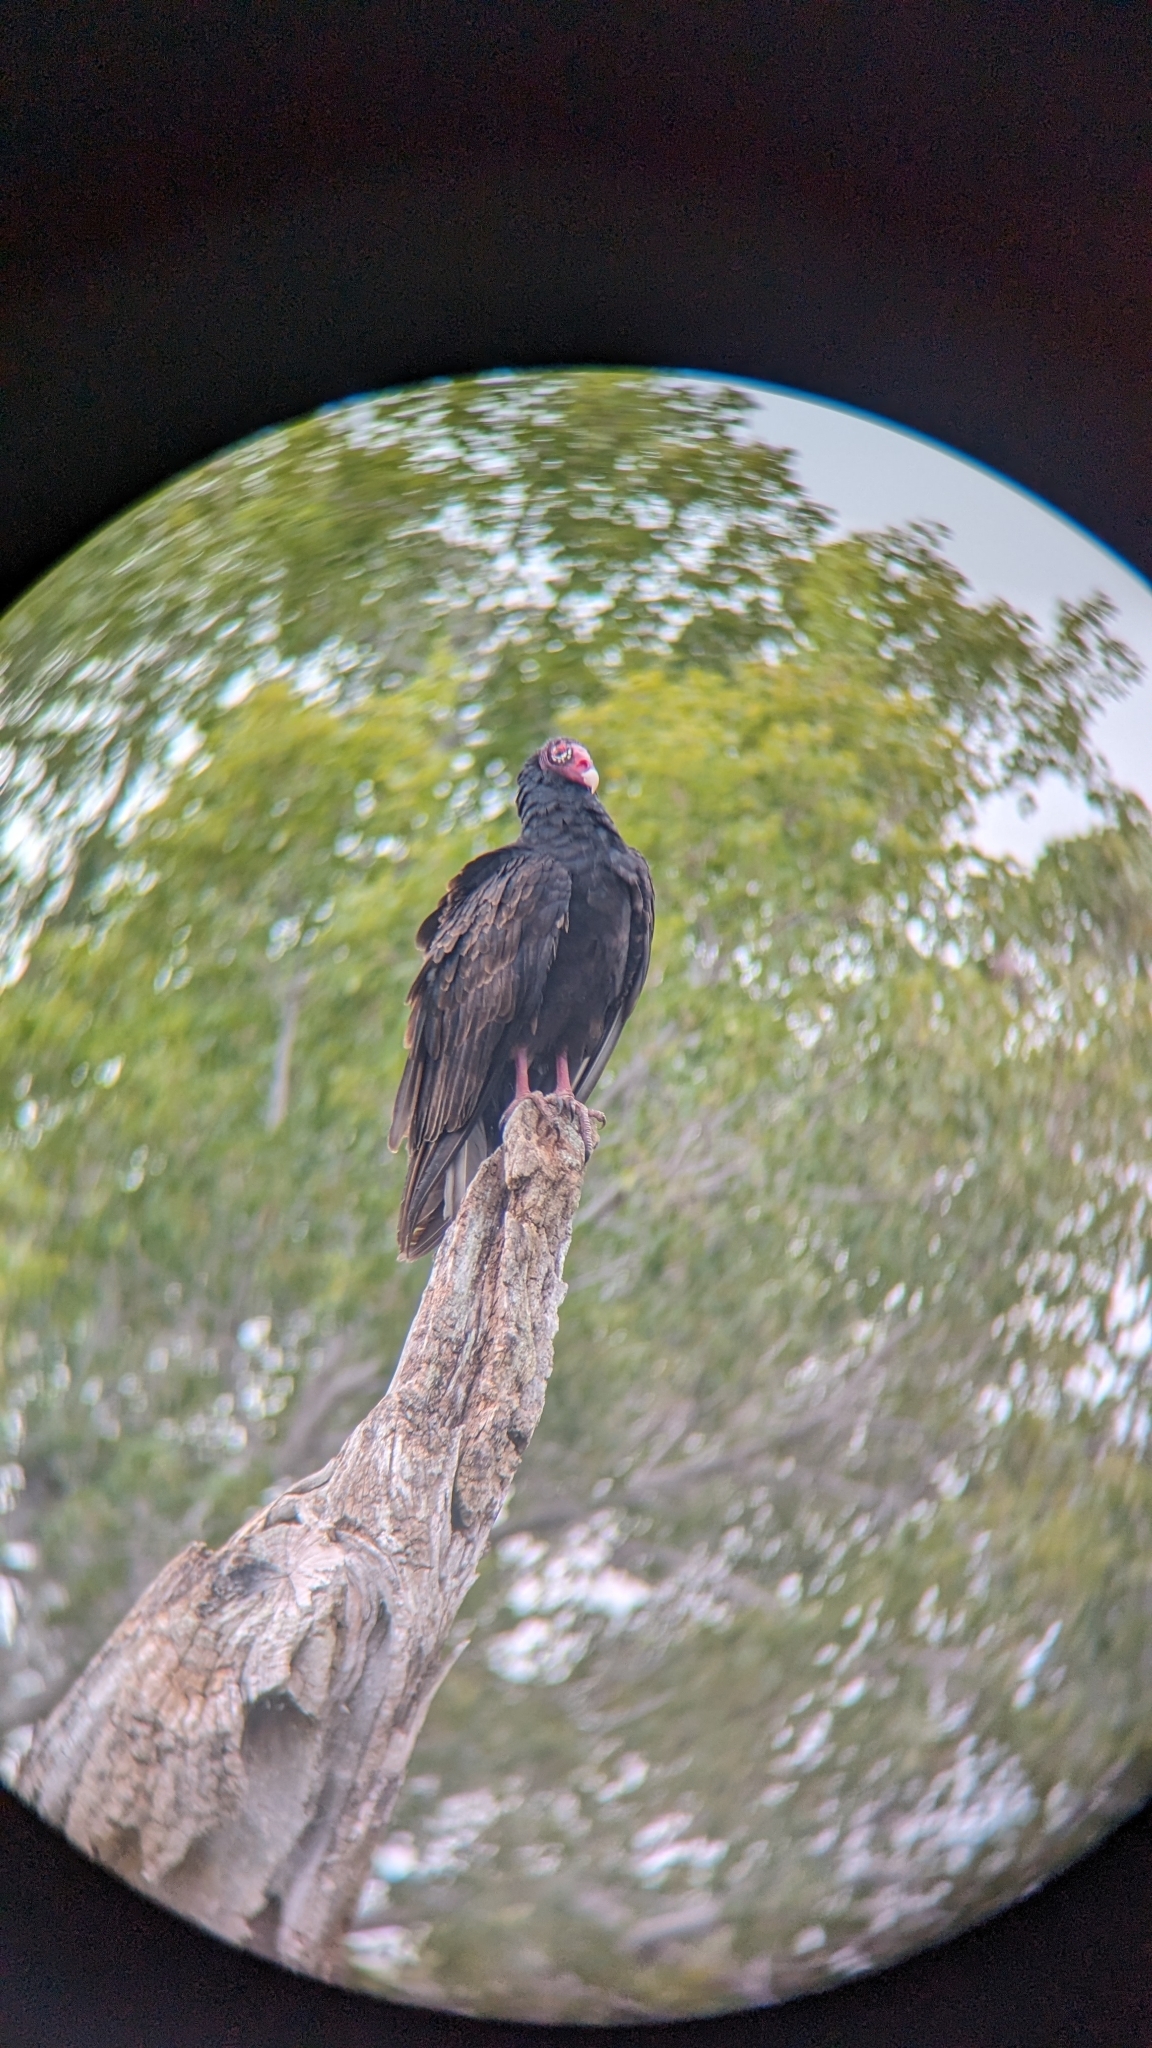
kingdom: Animalia
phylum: Chordata
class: Aves
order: Accipitriformes
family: Cathartidae
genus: Cathartes
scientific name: Cathartes aura
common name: Turkey vulture
